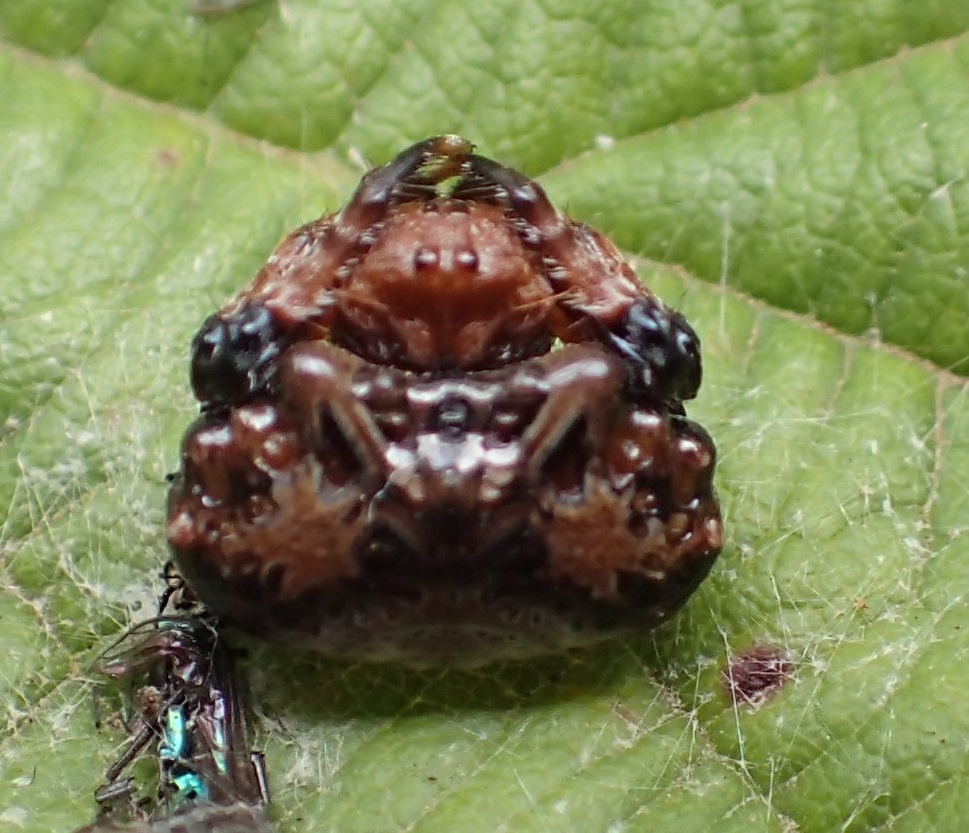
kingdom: Animalia
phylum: Arthropoda
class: Arachnida
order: Araneae
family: Arkyidae
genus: Arkys
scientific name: Arkys curtulus
